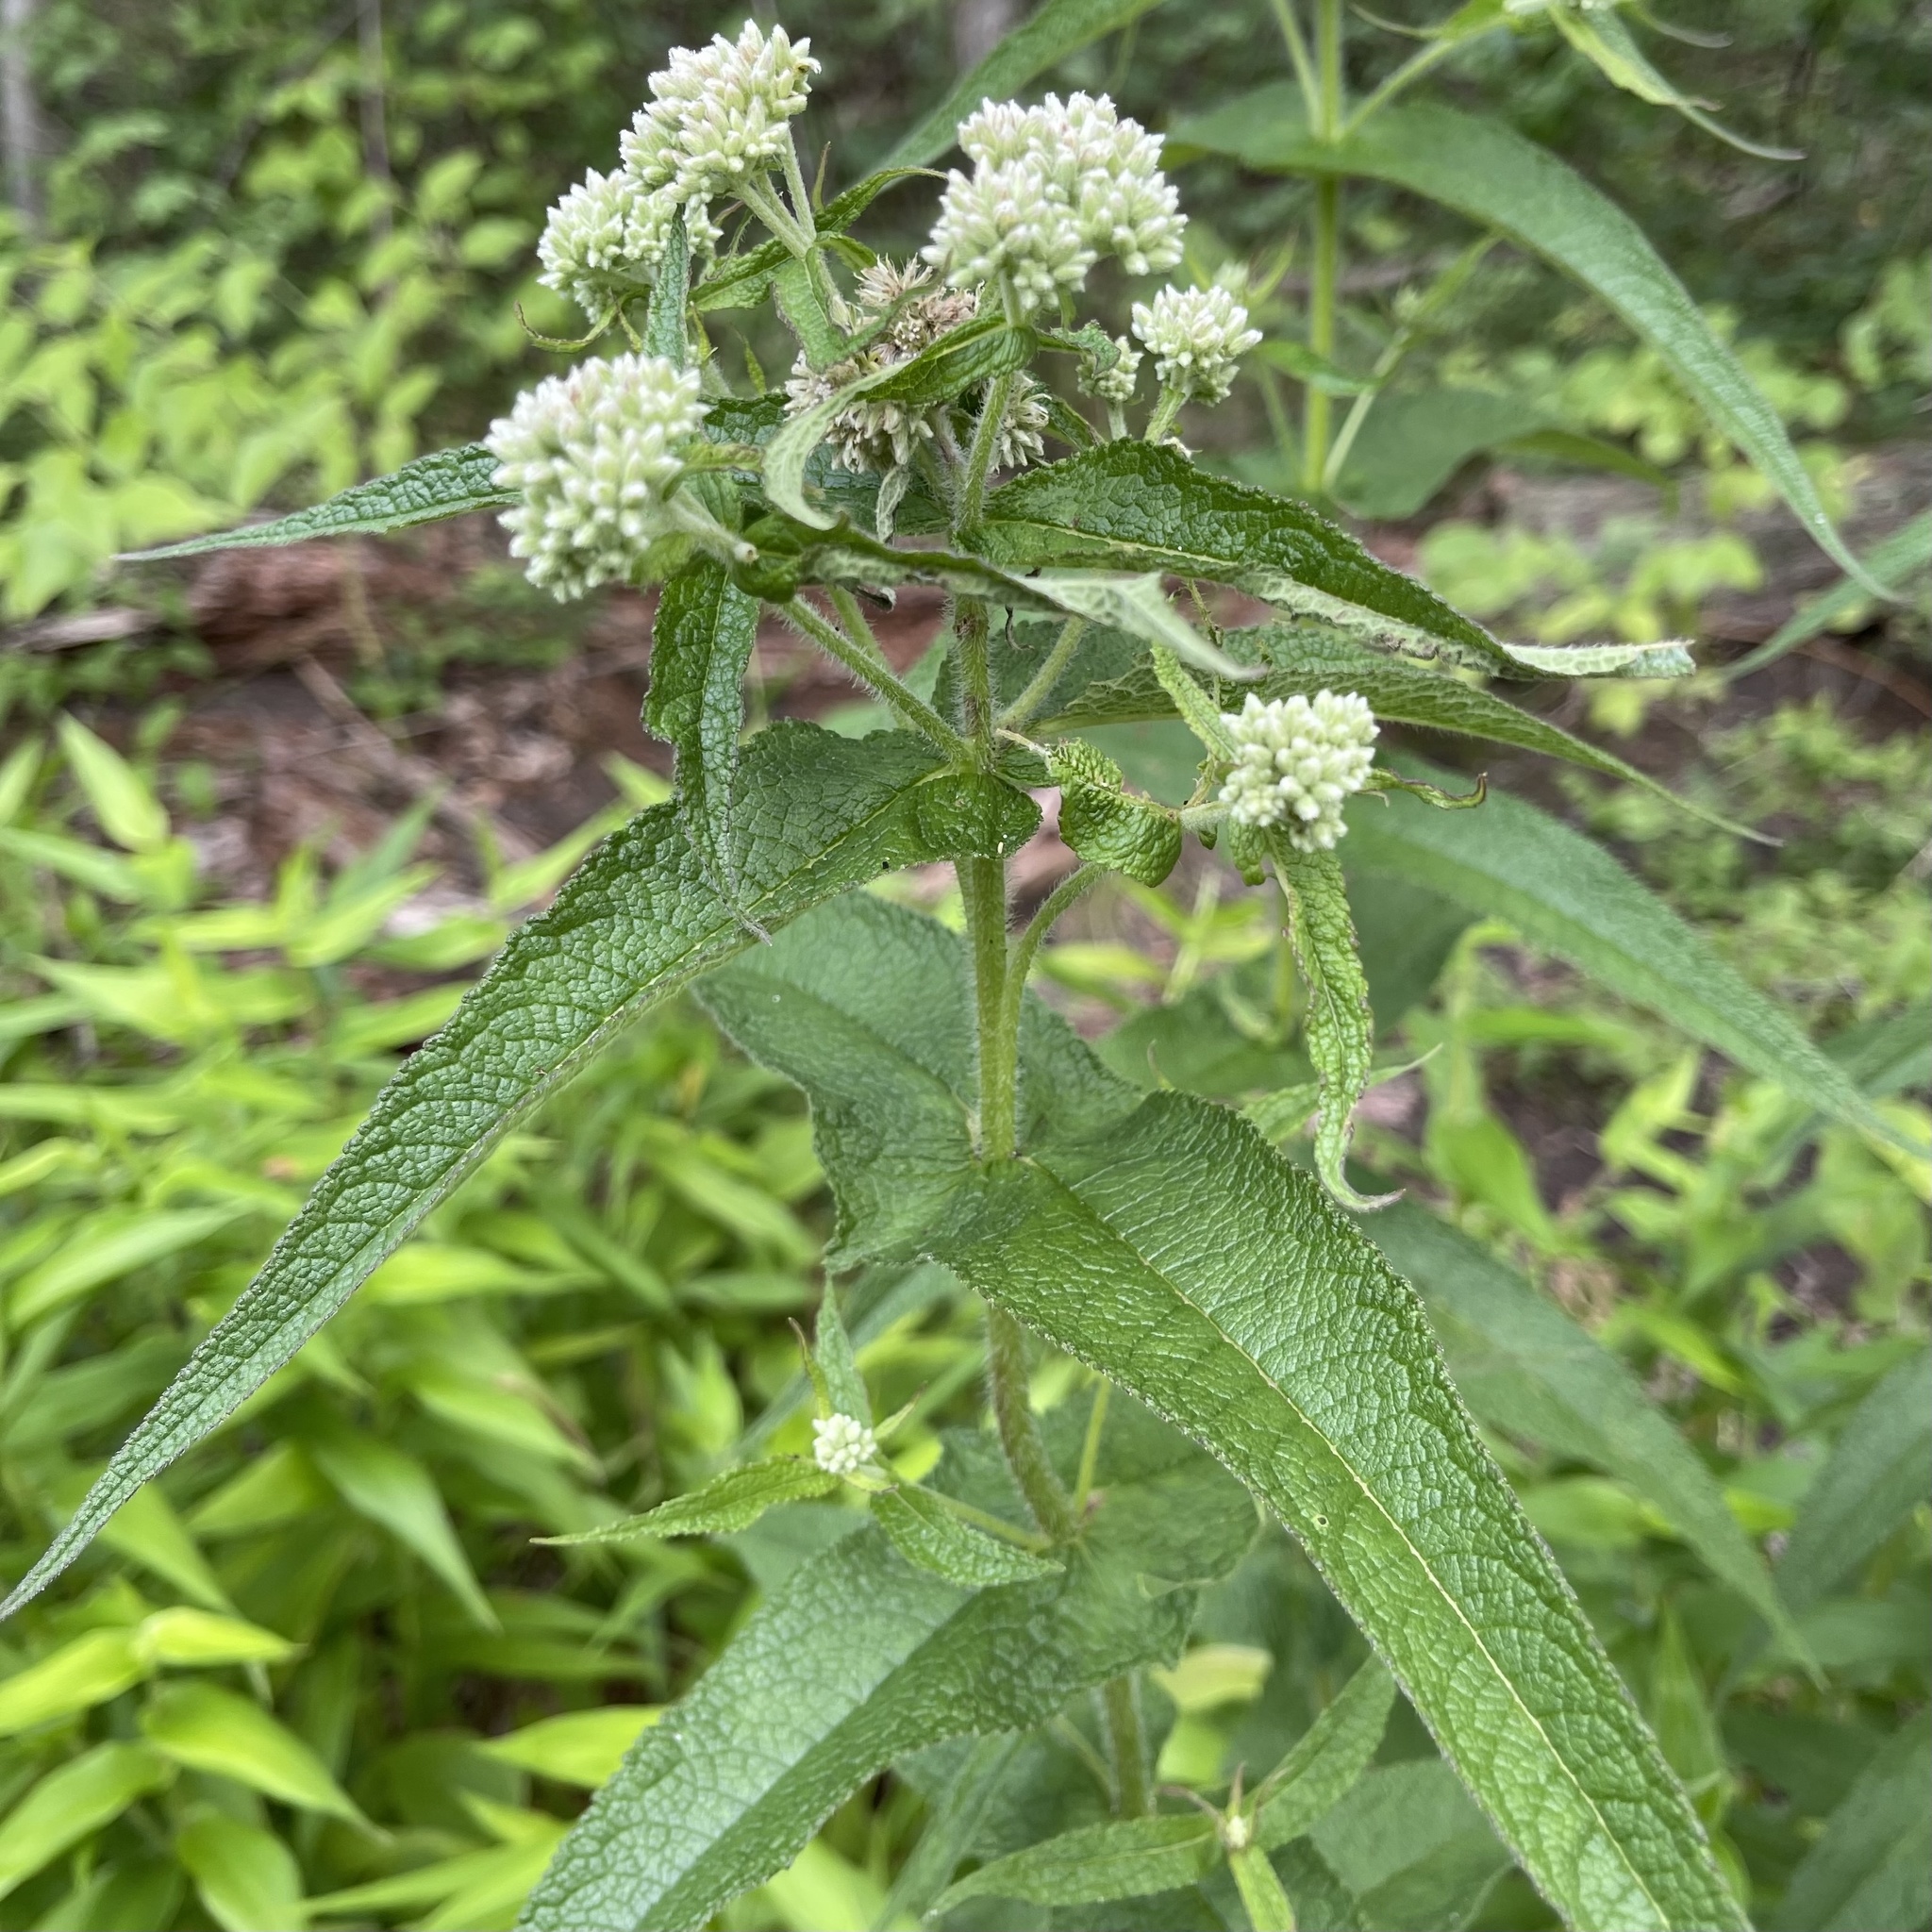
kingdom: Plantae
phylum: Tracheophyta
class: Magnoliopsida
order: Asterales
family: Asteraceae
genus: Eupatorium
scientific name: Eupatorium perfoliatum
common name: Boneset
